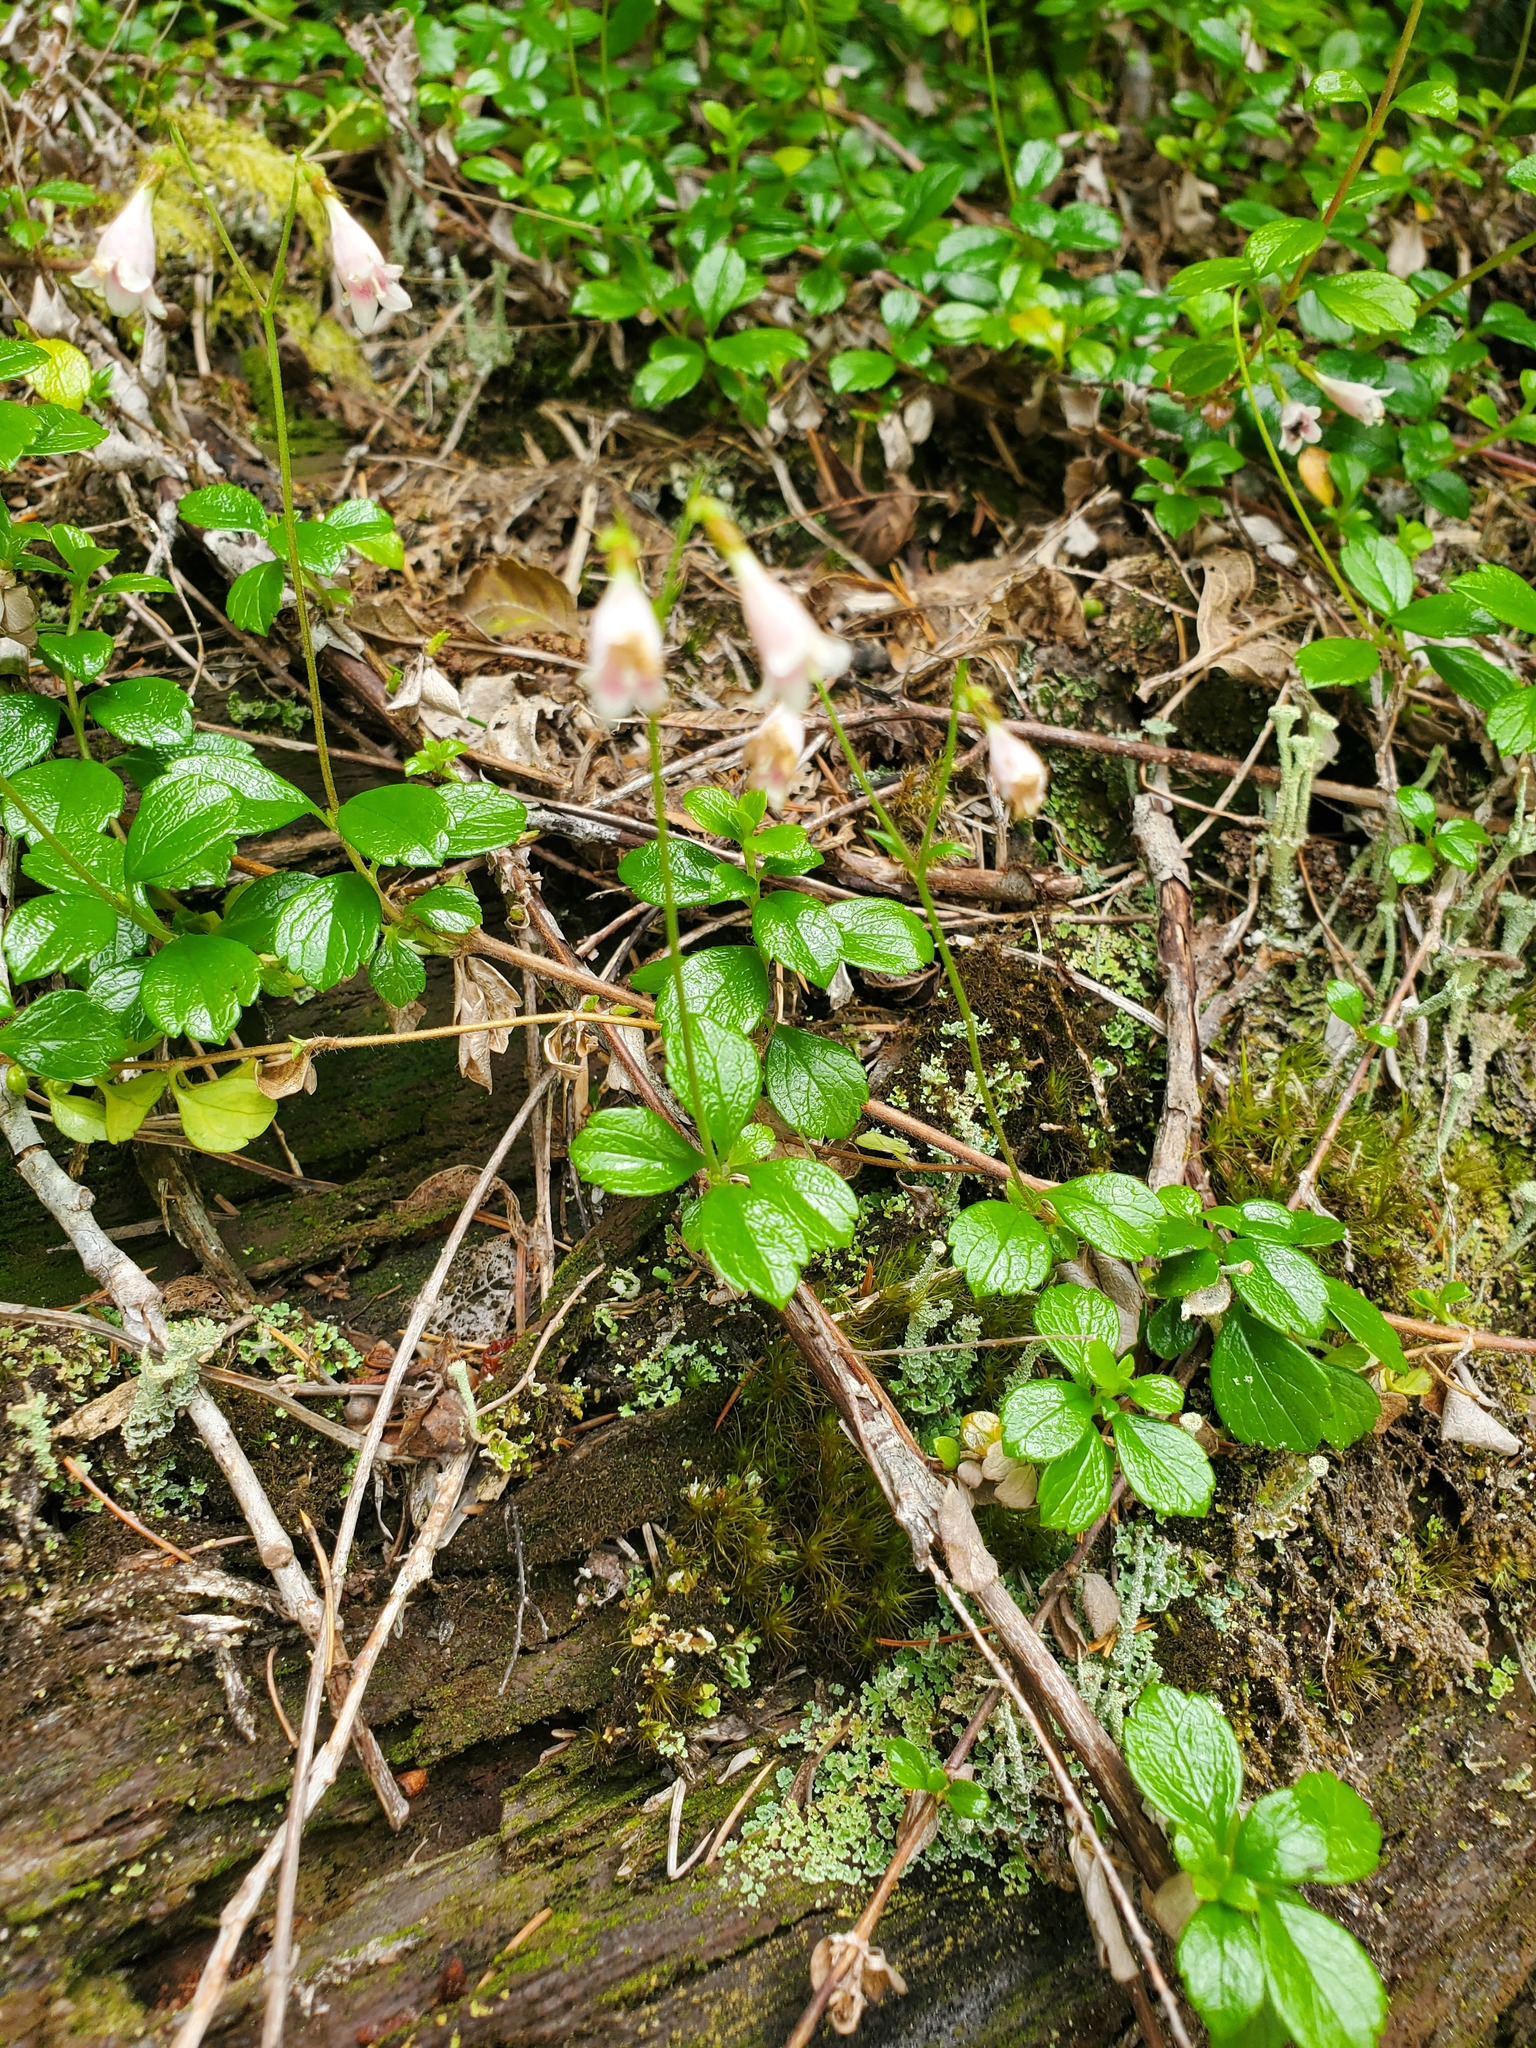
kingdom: Plantae
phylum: Tracheophyta
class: Magnoliopsida
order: Dipsacales
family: Caprifoliaceae
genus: Linnaea
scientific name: Linnaea borealis
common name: Twinflower
